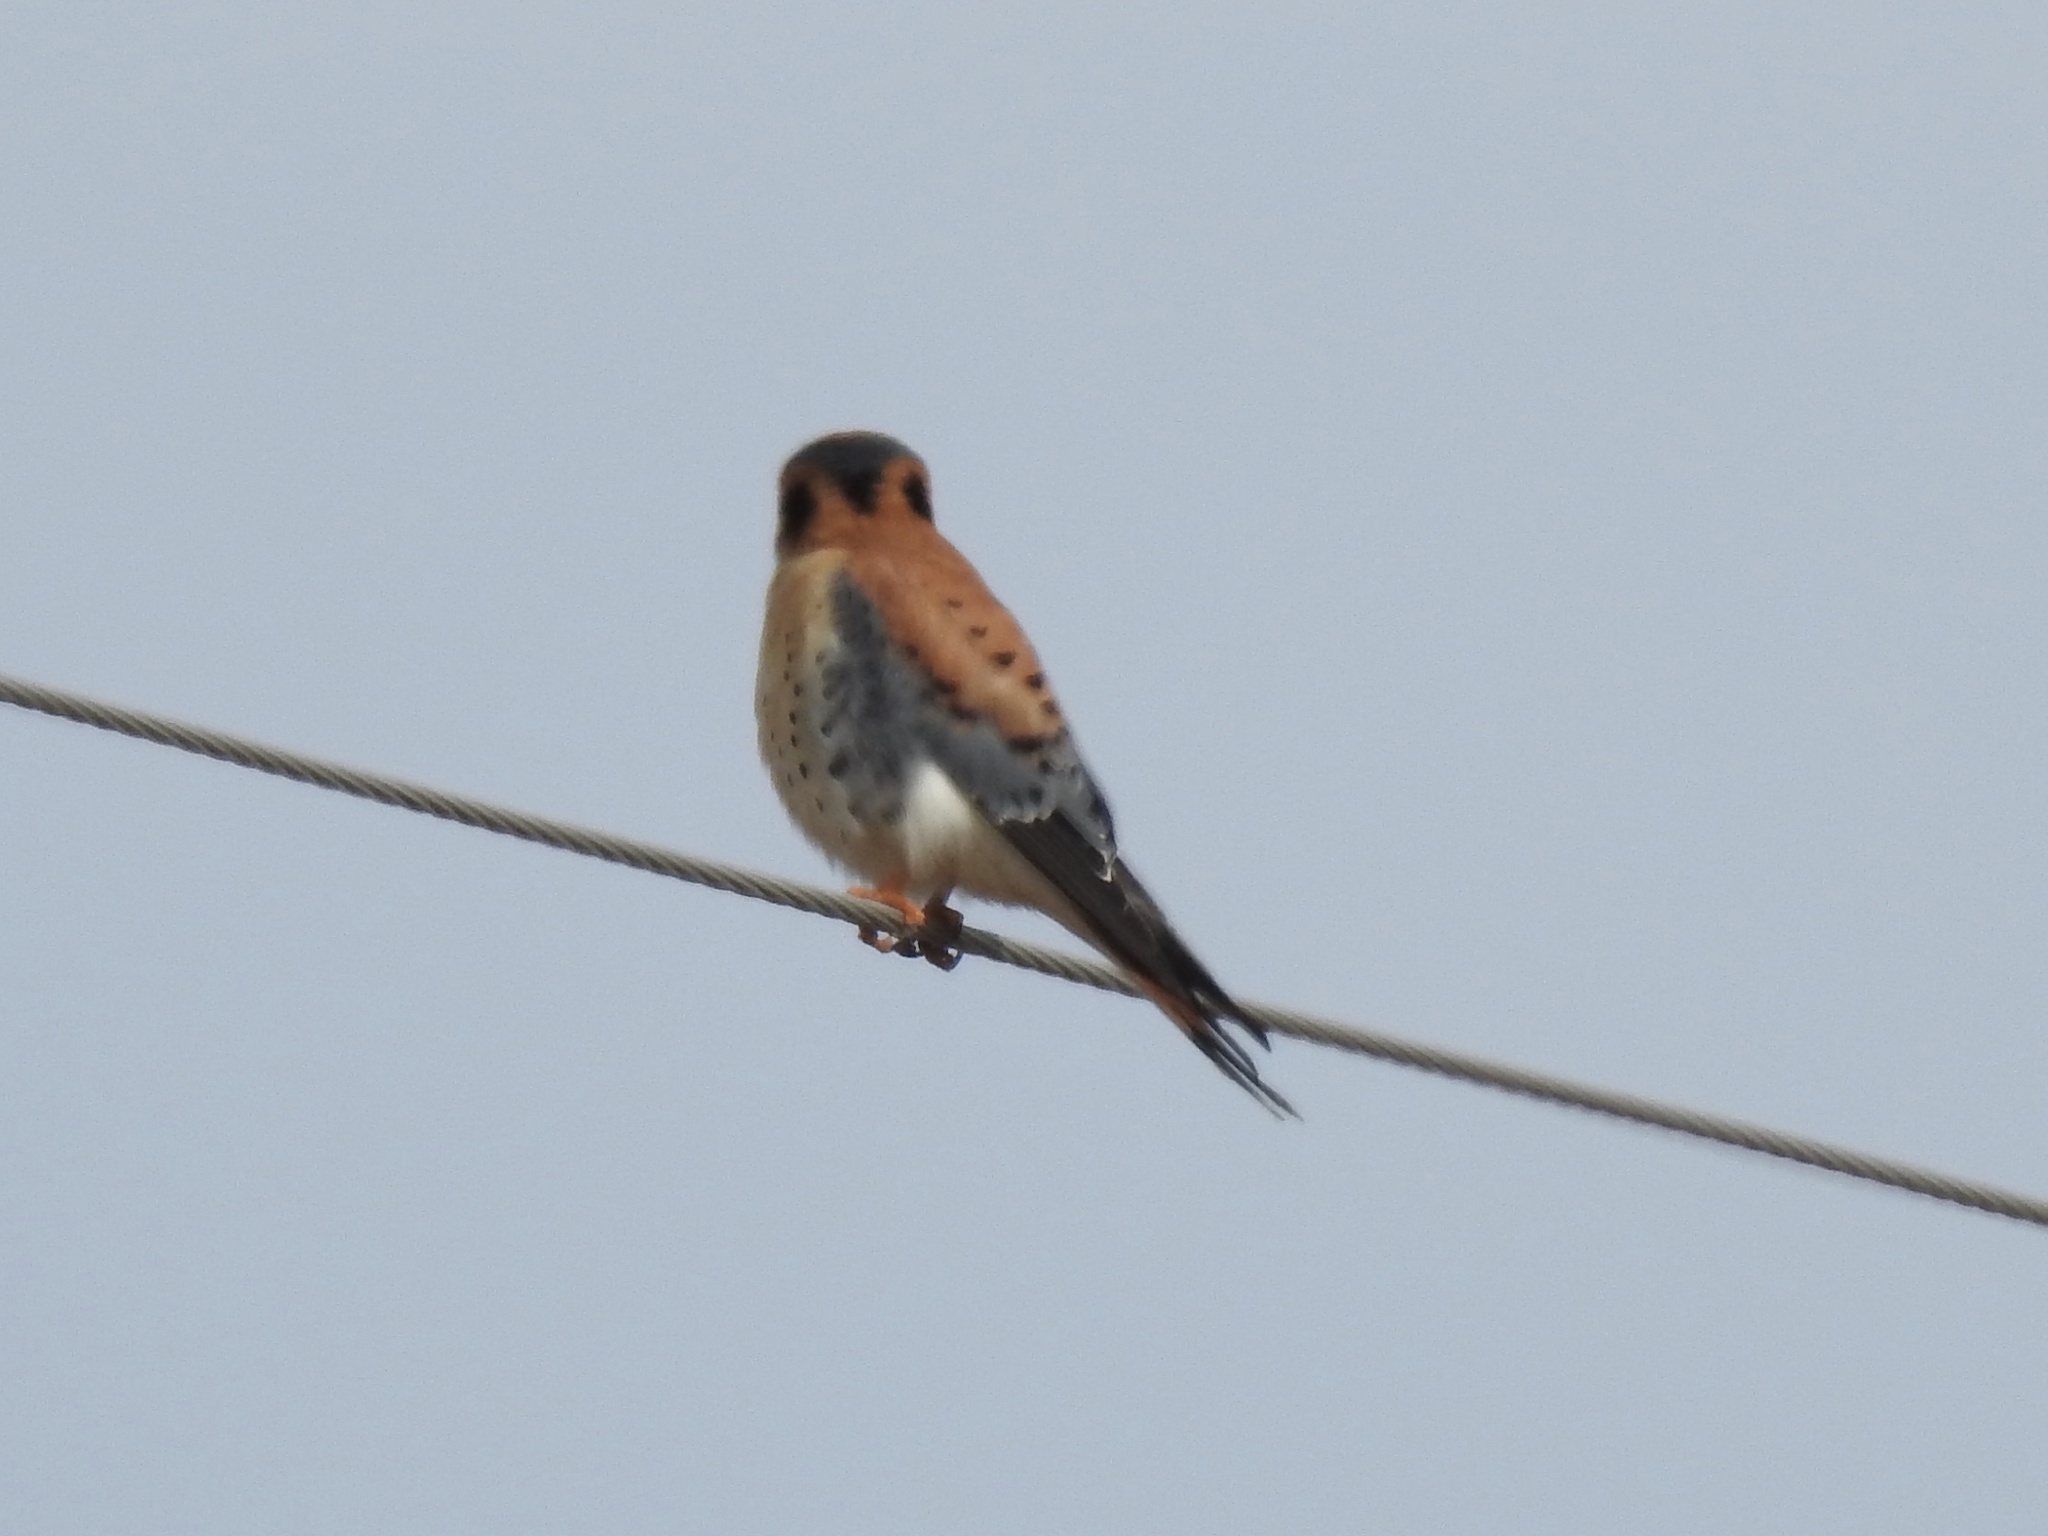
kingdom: Animalia
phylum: Chordata
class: Aves
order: Falconiformes
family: Falconidae
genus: Falco
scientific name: Falco sparverius
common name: American kestrel
